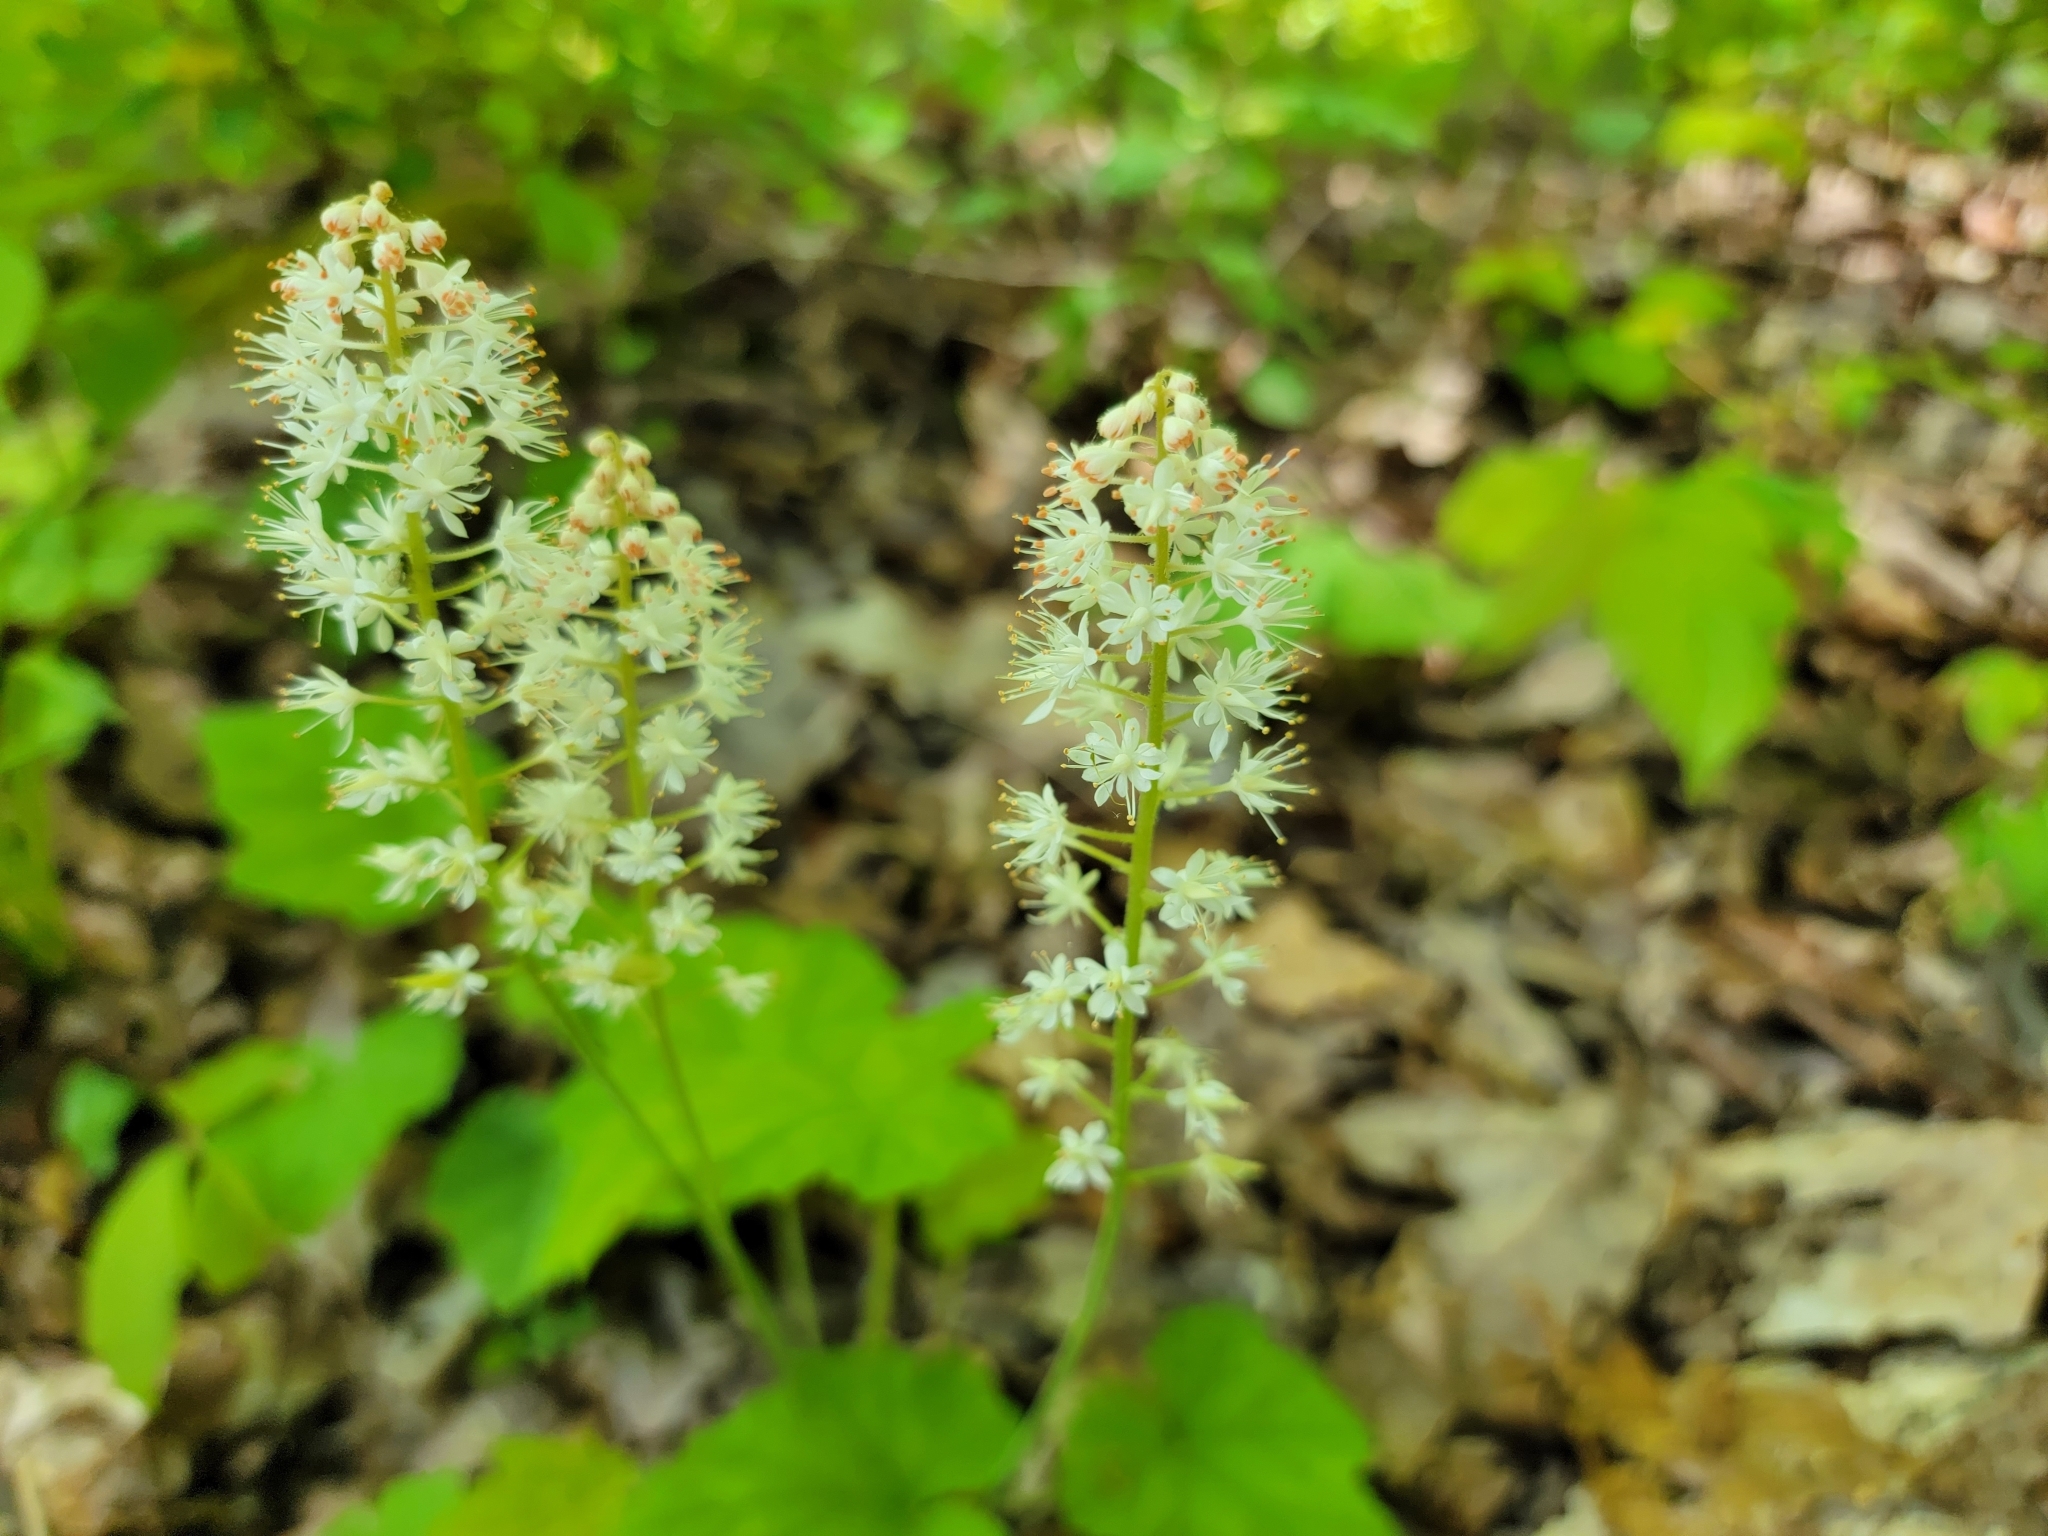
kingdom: Plantae
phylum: Tracheophyta
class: Magnoliopsida
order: Saxifragales
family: Saxifragaceae
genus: Tiarella
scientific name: Tiarella stolonifera
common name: Stoloniferous foamflower
